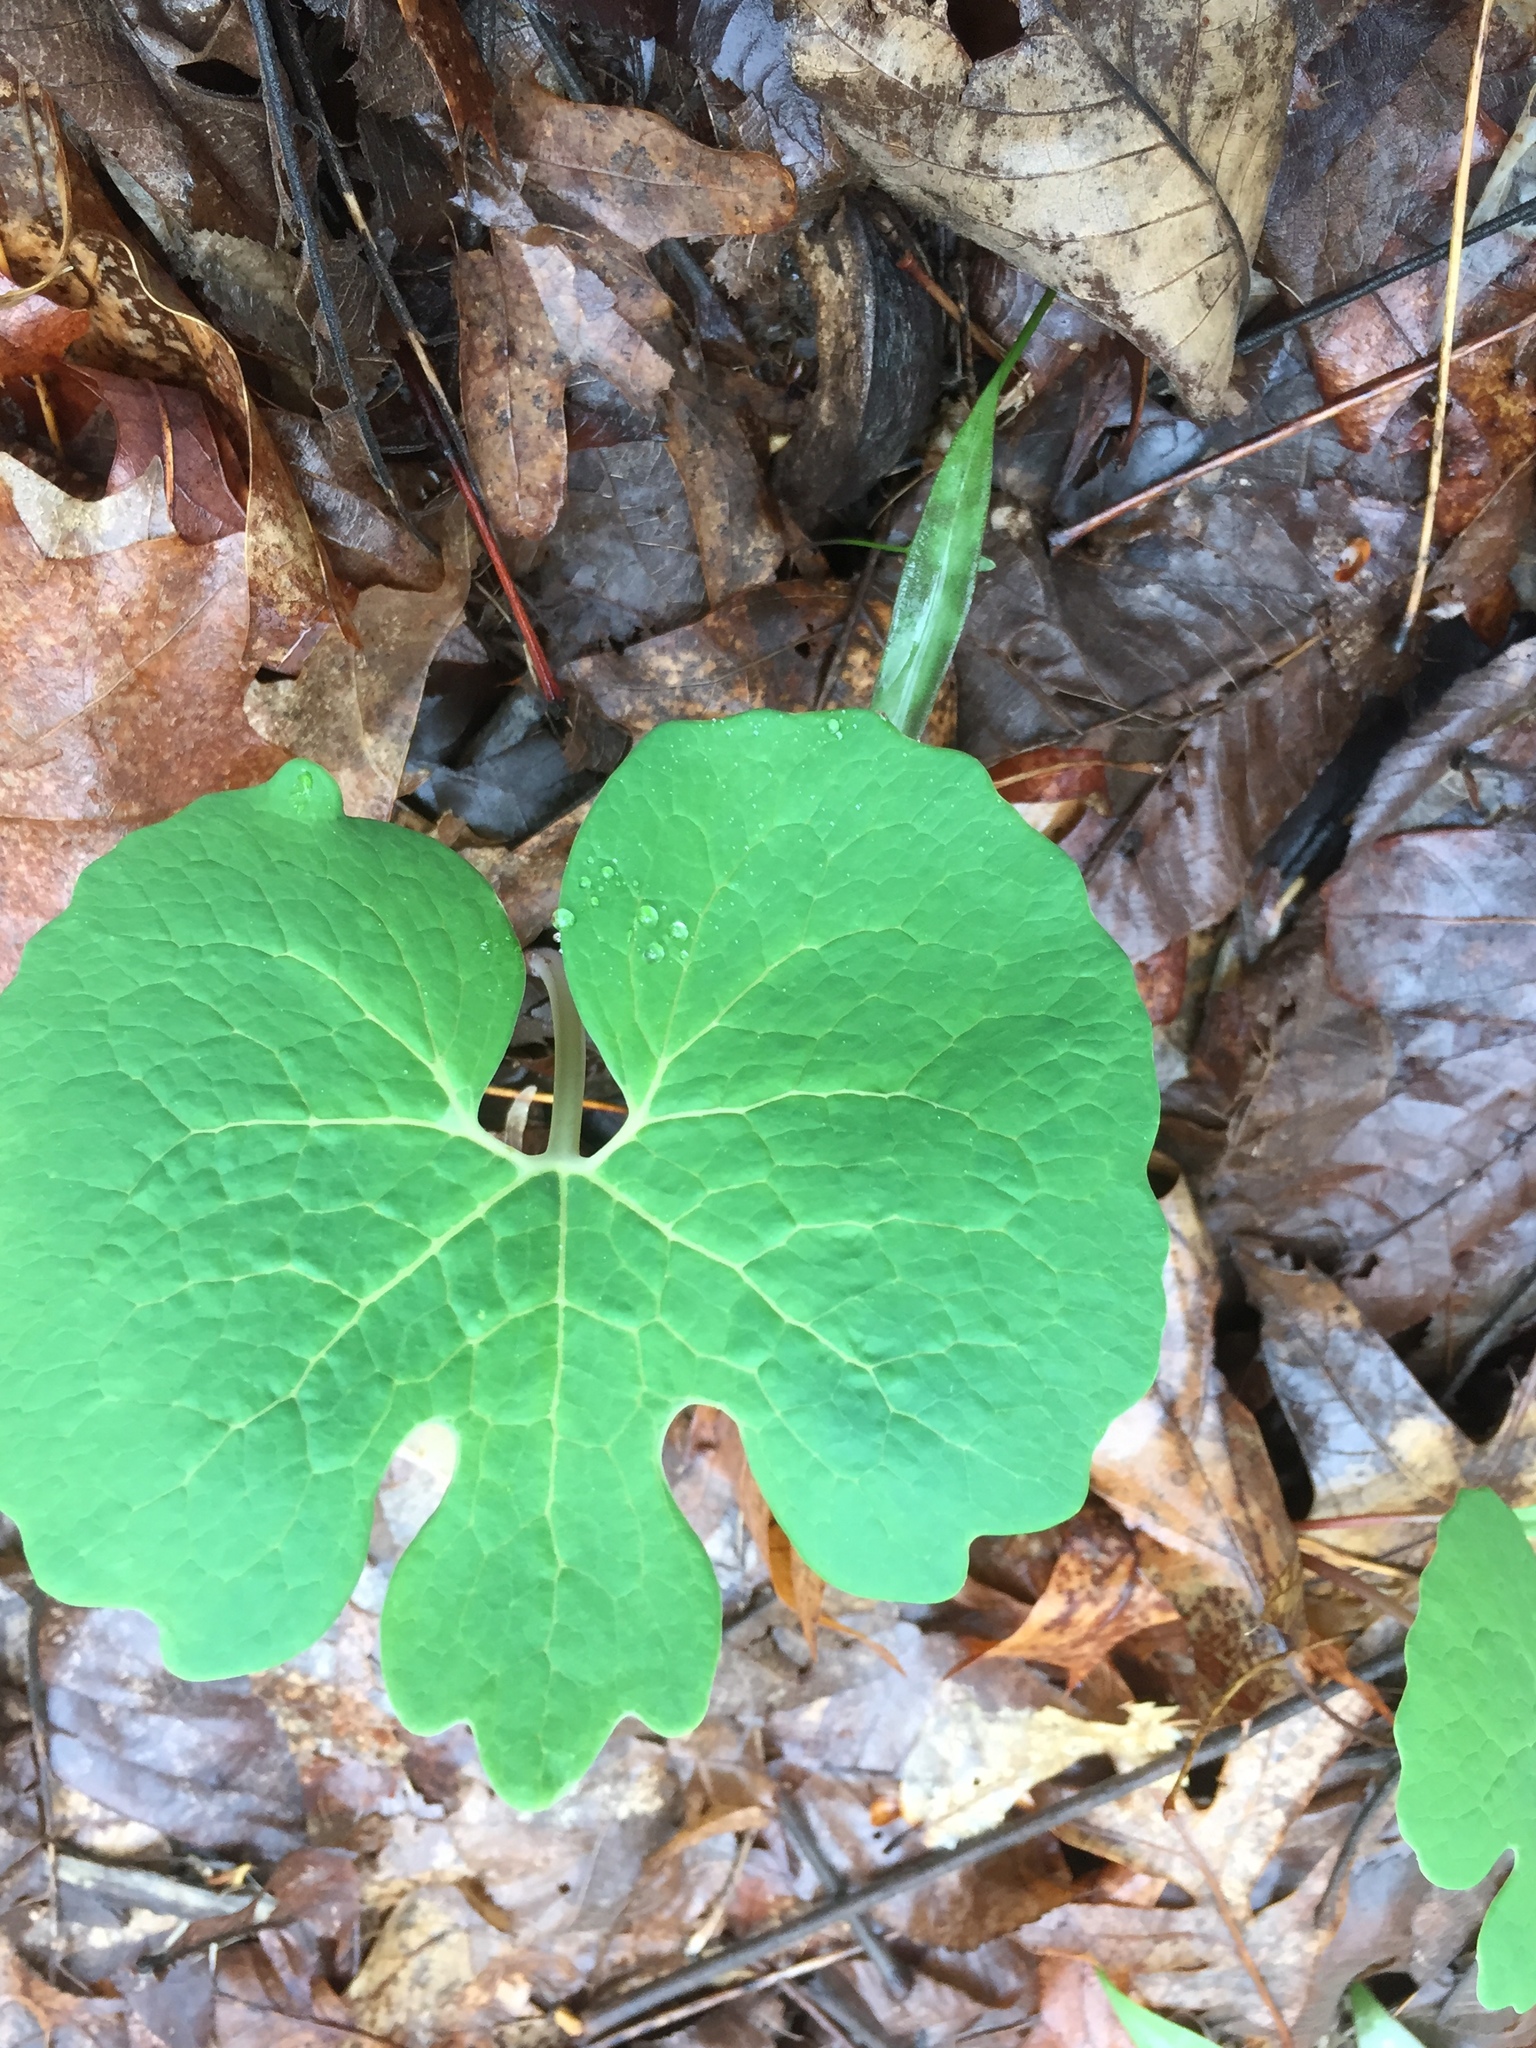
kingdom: Plantae
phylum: Tracheophyta
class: Magnoliopsida
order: Ranunculales
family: Papaveraceae
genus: Sanguinaria
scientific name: Sanguinaria canadensis
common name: Bloodroot
